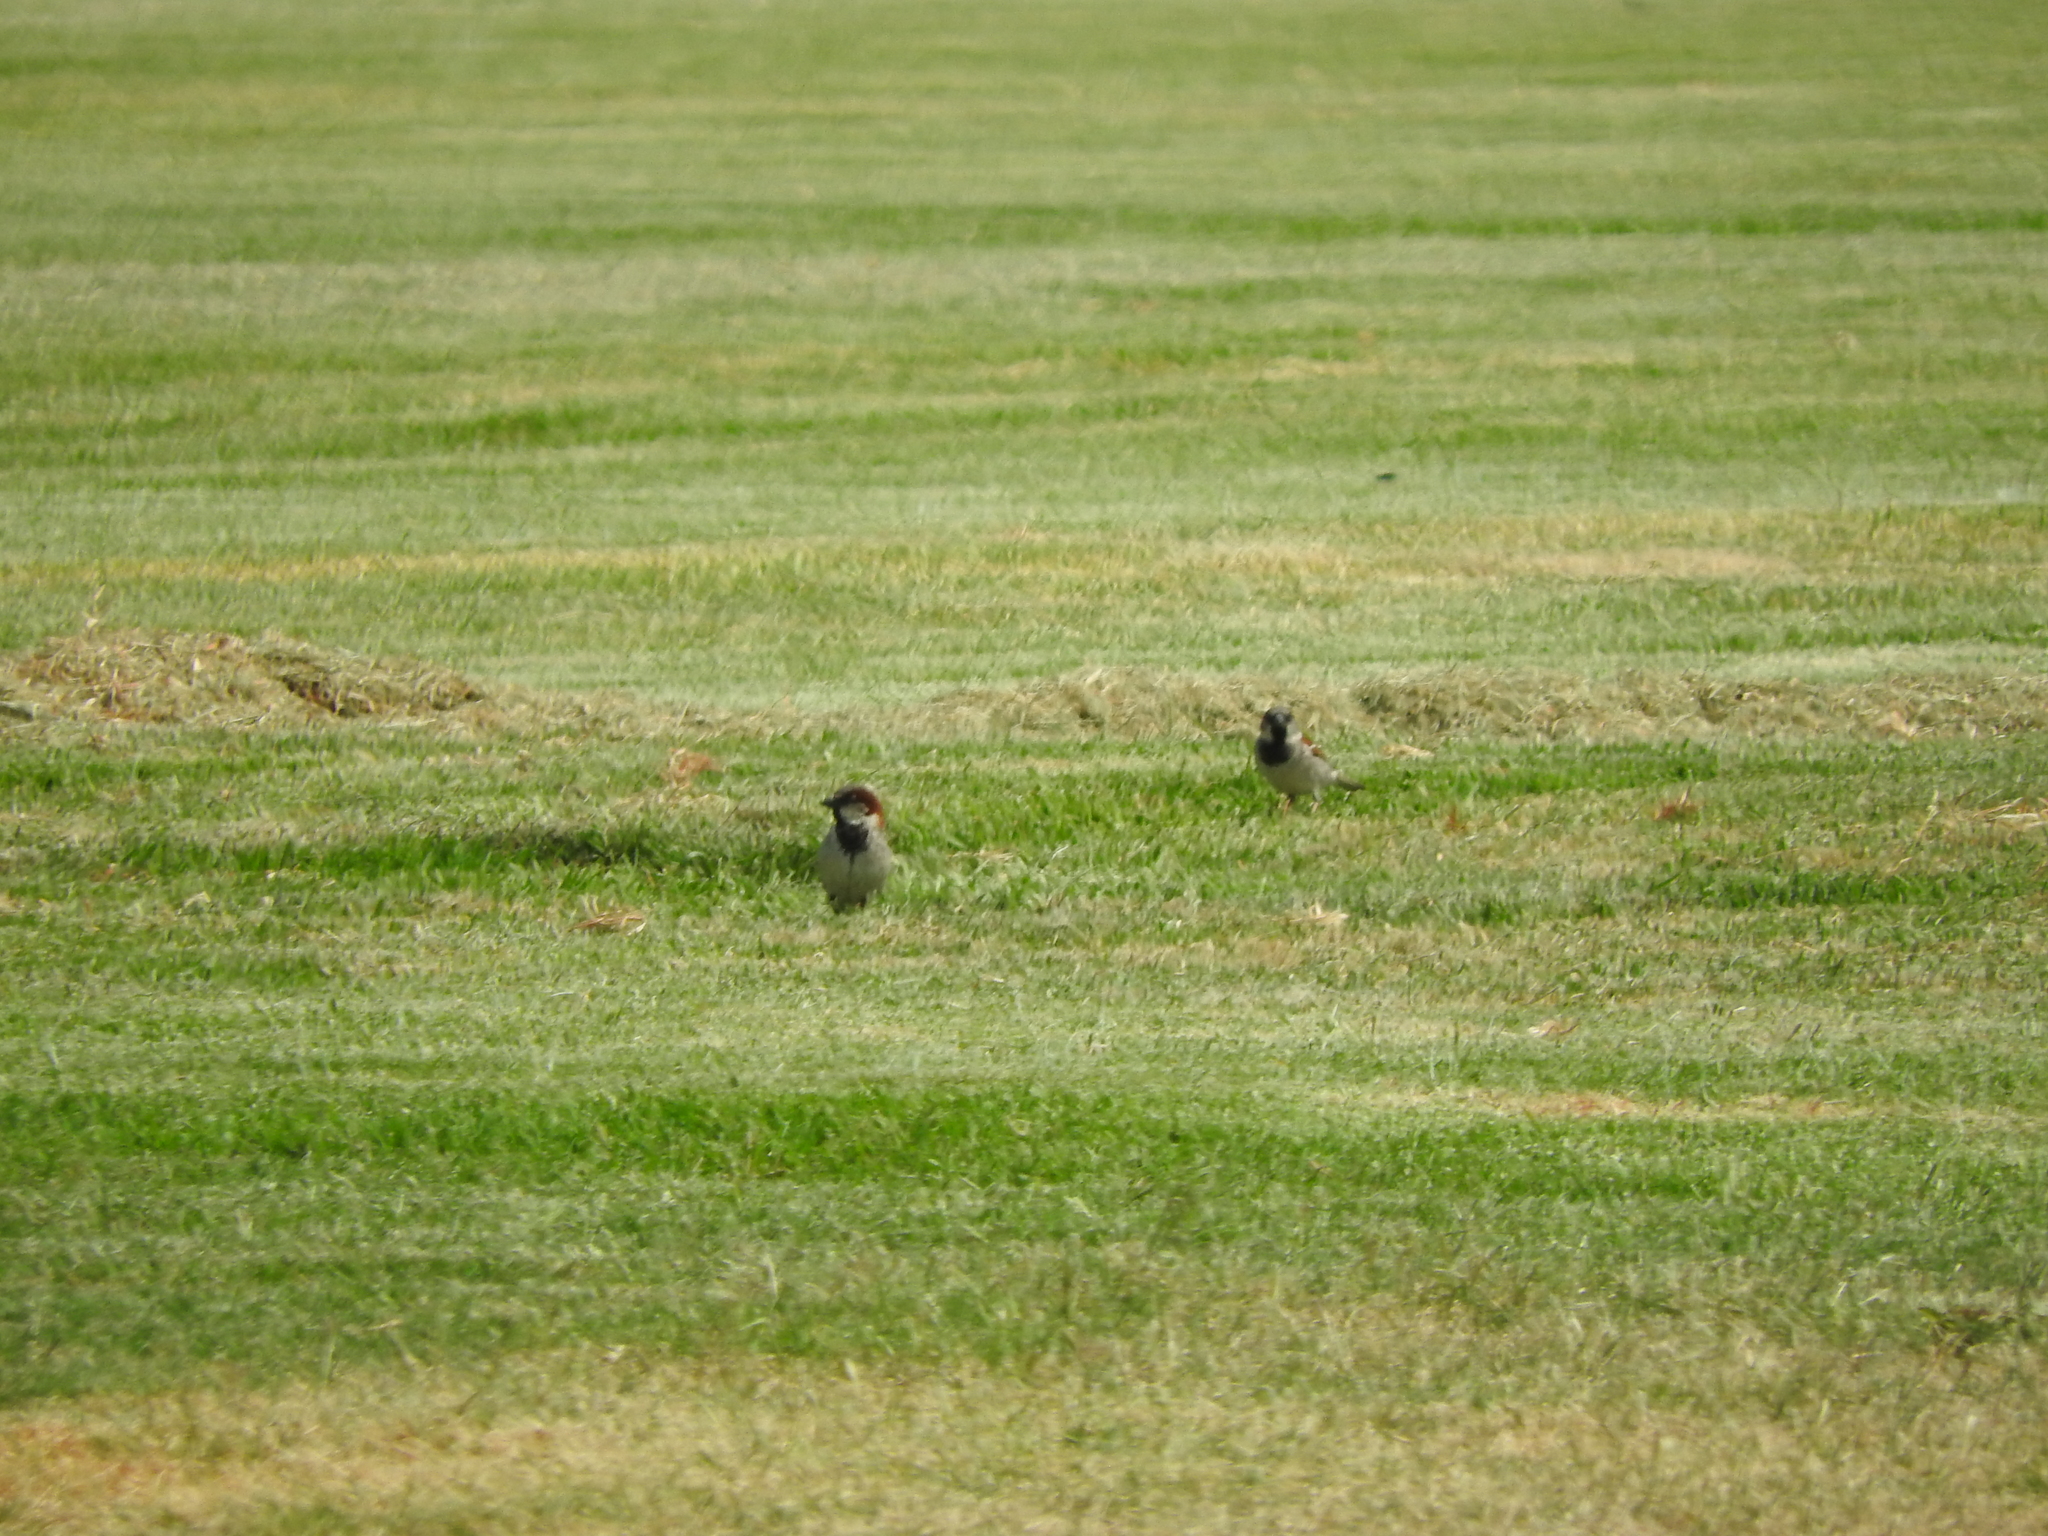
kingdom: Animalia
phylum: Chordata
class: Aves
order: Passeriformes
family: Passeridae
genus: Passer
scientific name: Passer domesticus
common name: House sparrow
